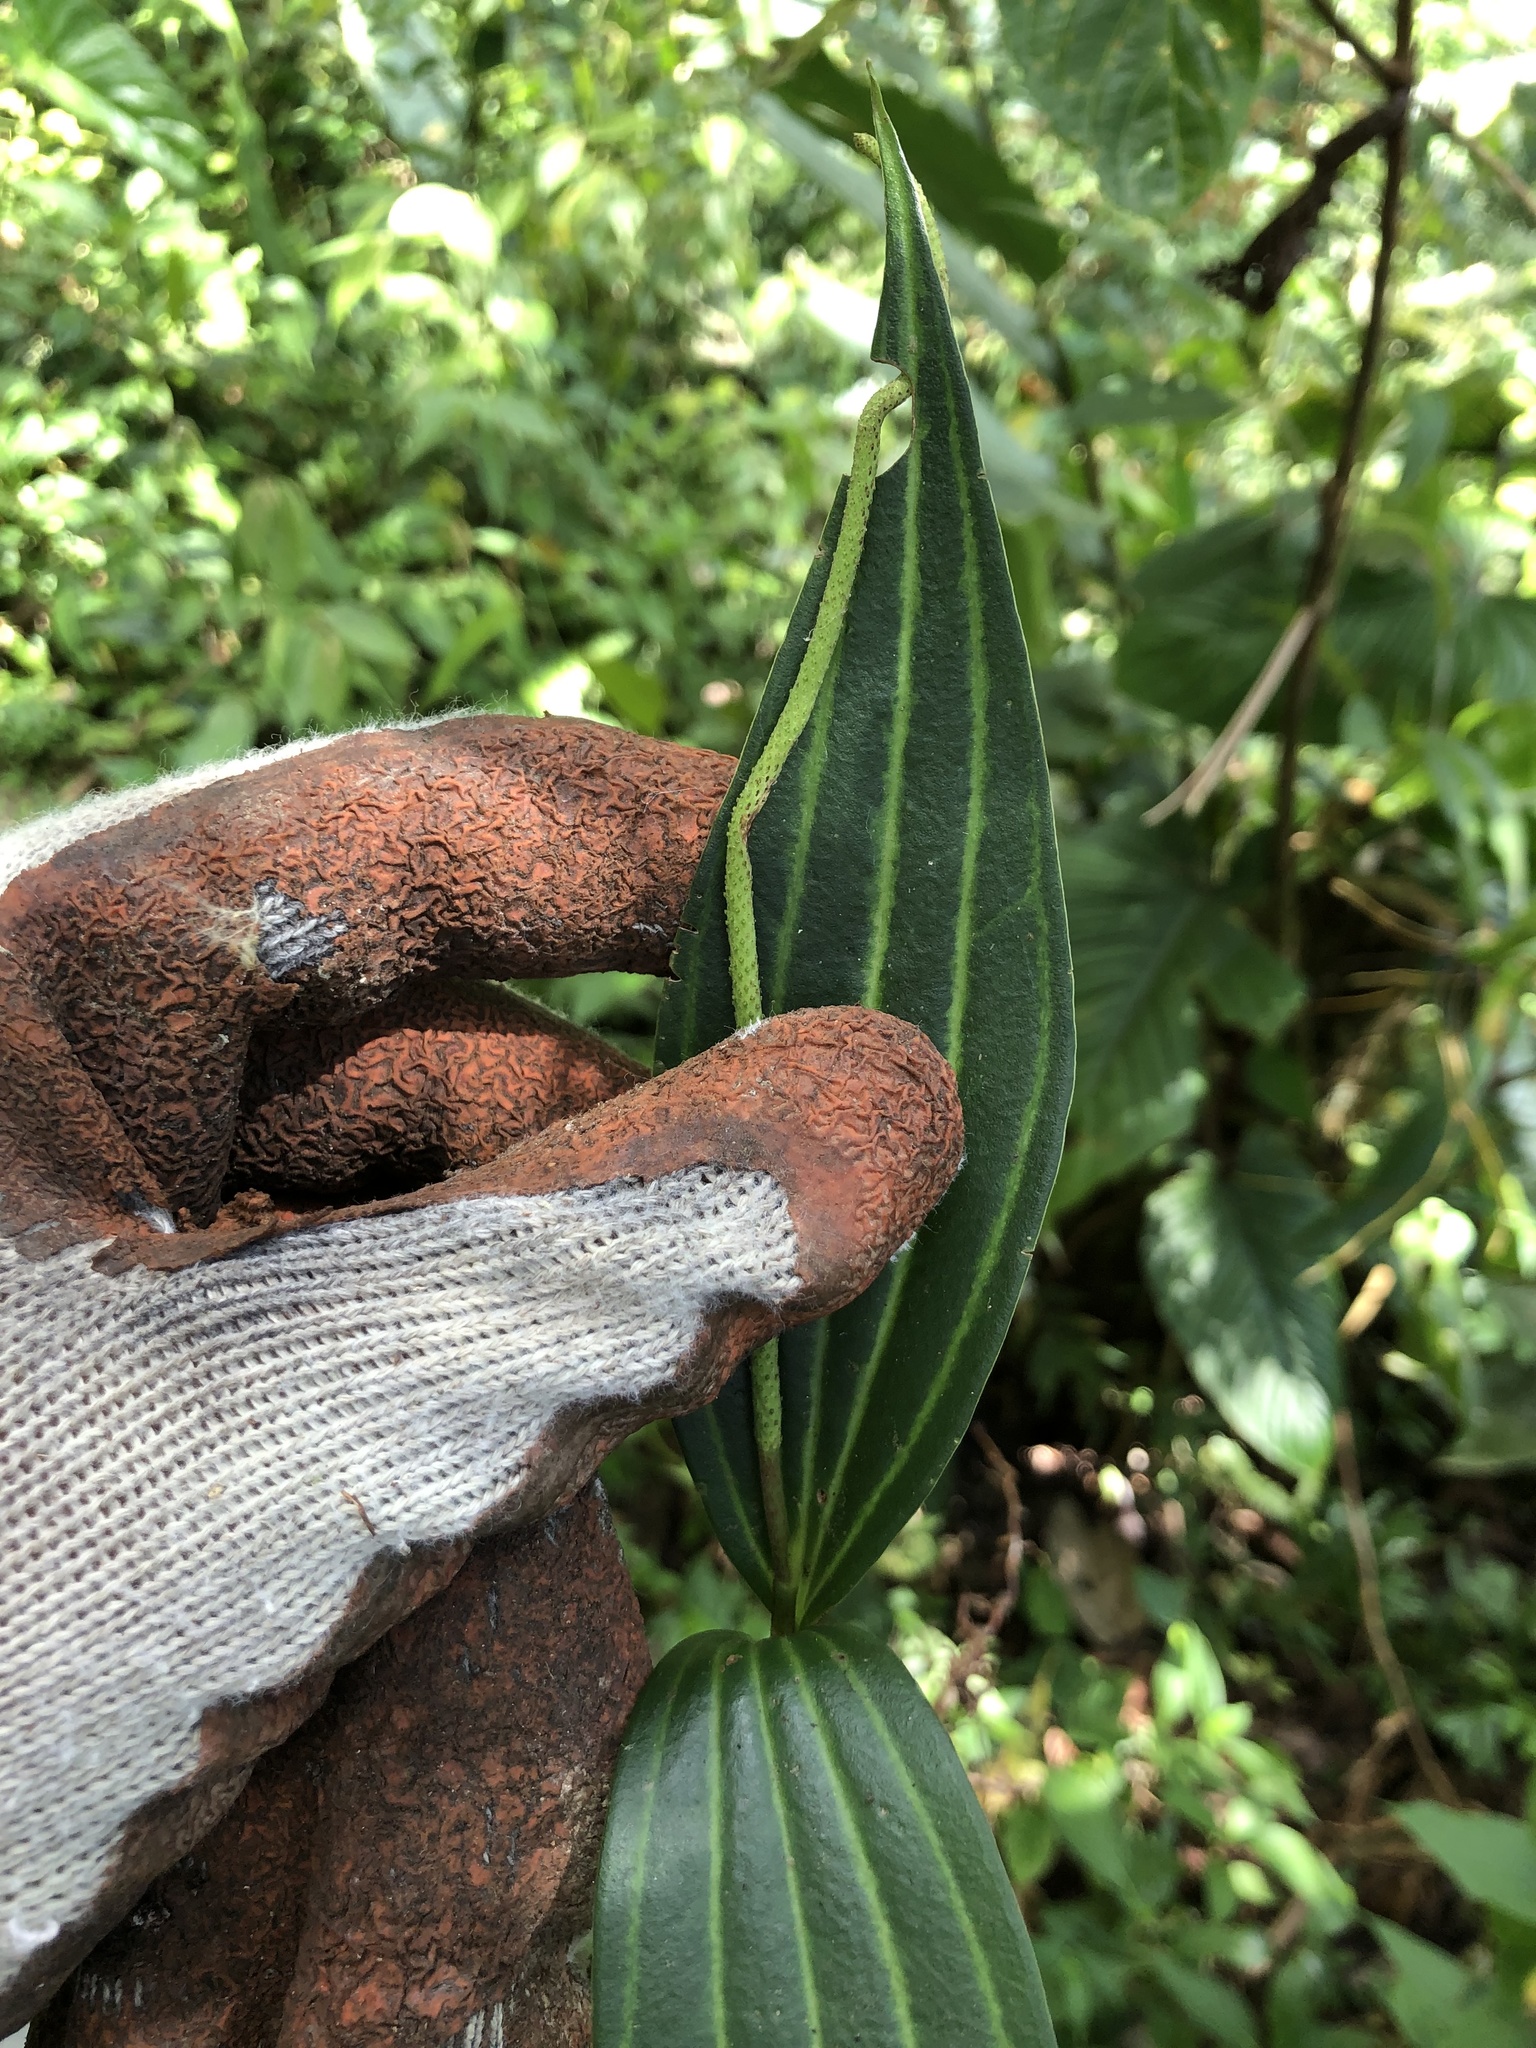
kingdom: Plantae
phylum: Tracheophyta
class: Magnoliopsida
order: Piperales
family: Piperaceae
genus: Peperomia
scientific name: Peperomia tetragona
